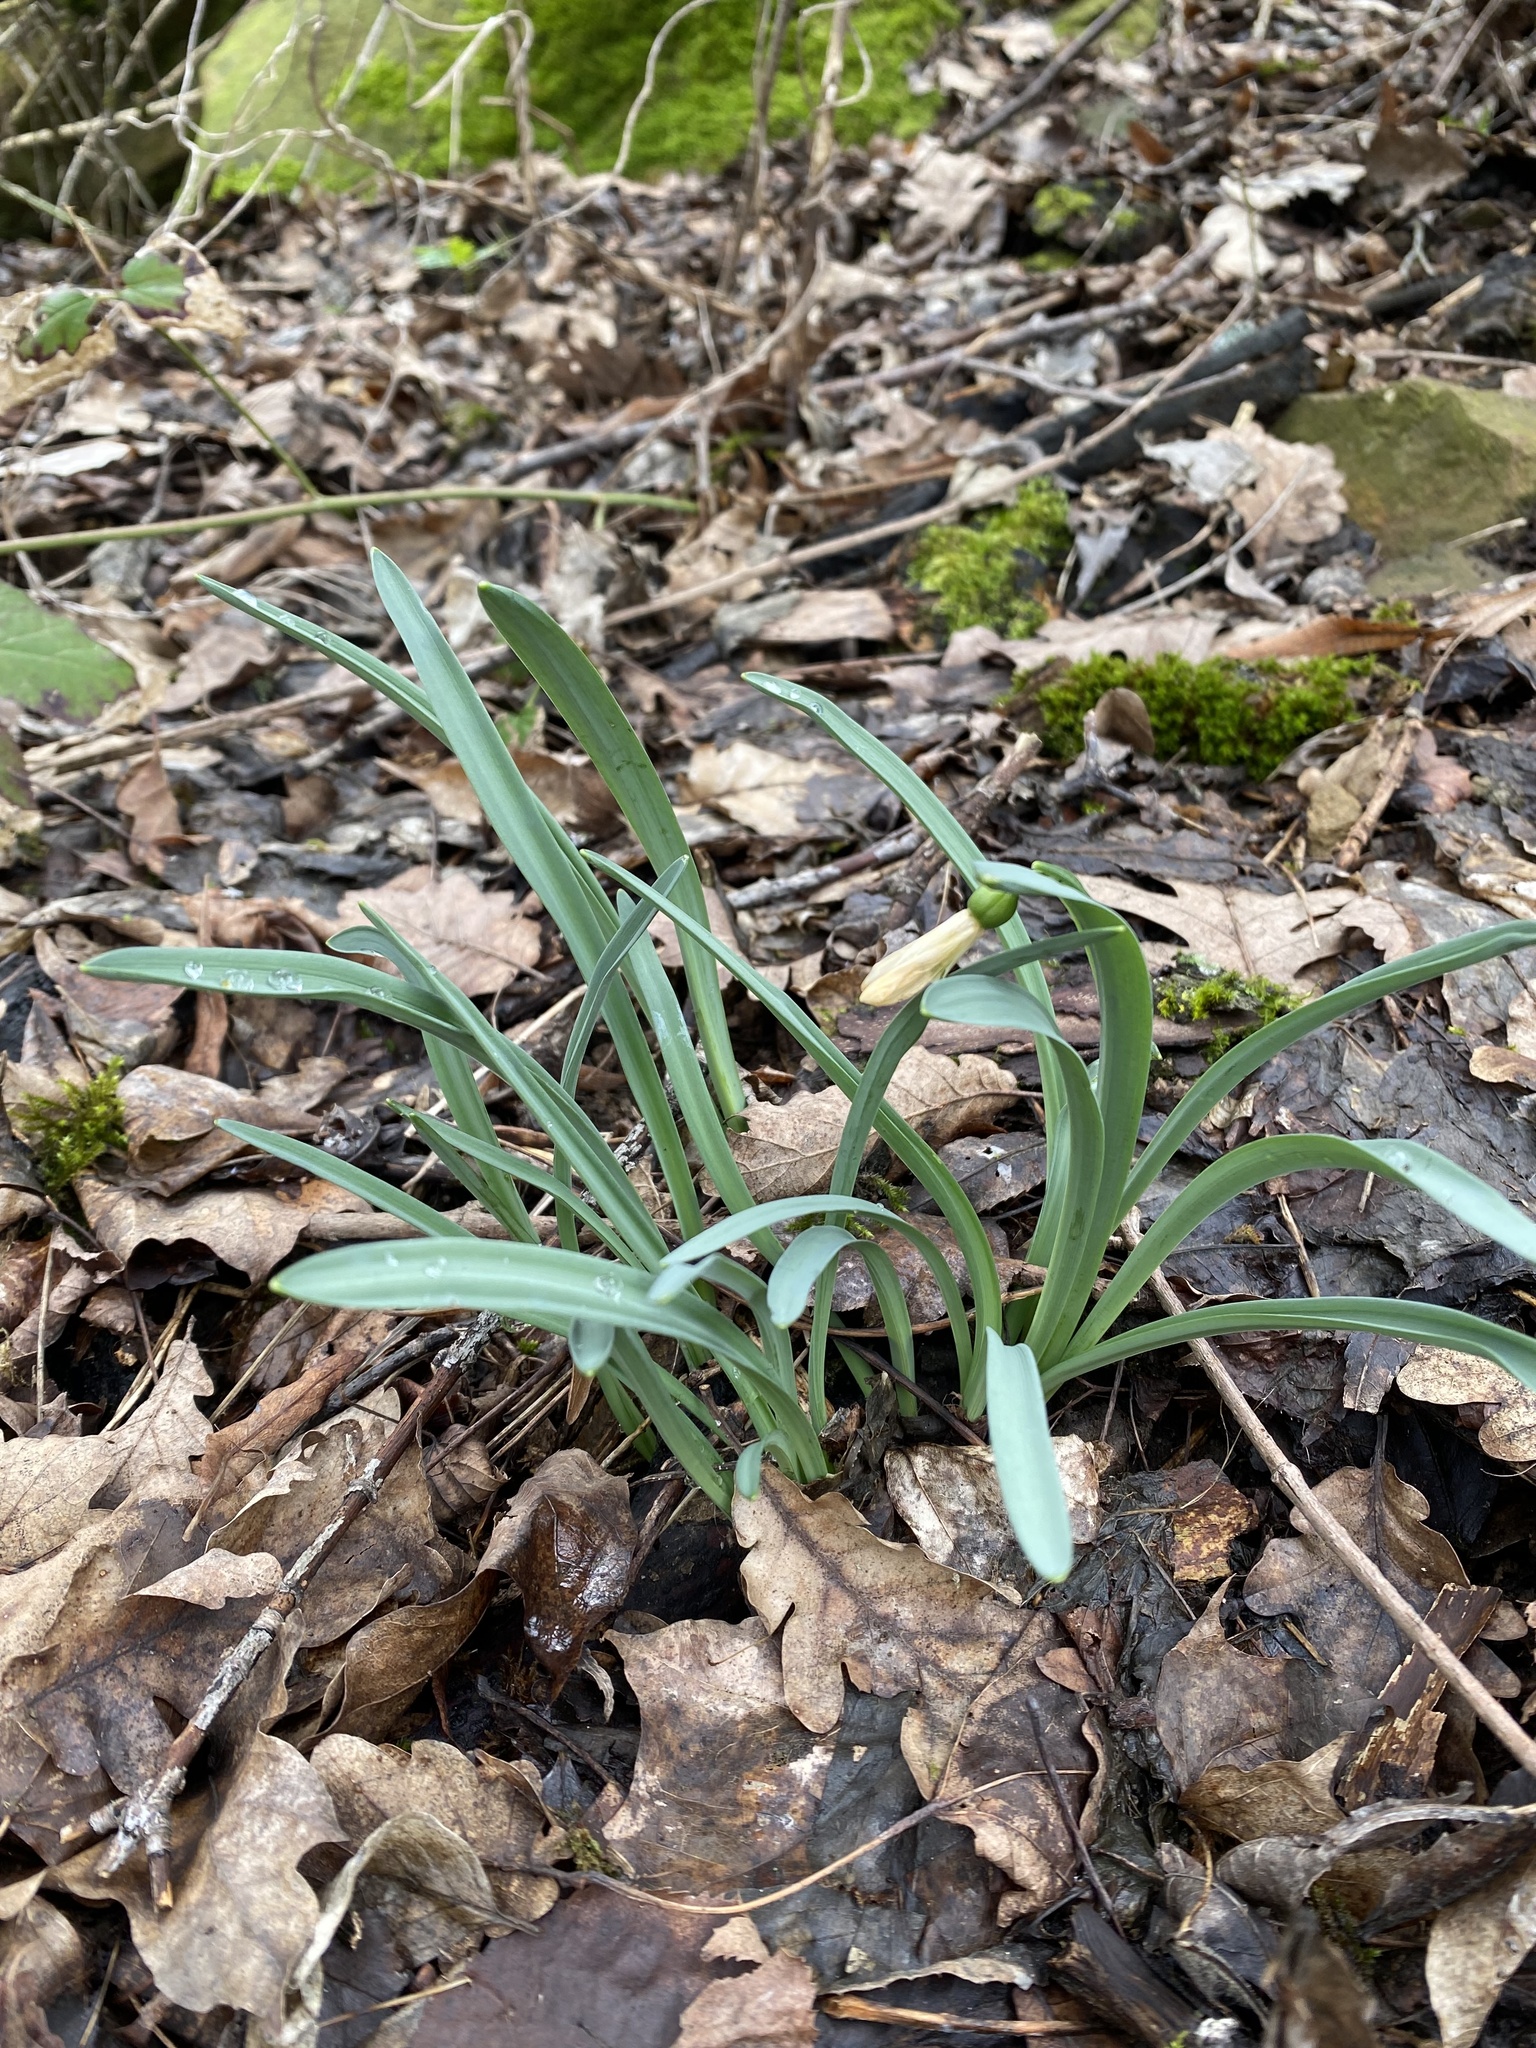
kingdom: Plantae
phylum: Tracheophyta
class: Liliopsida
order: Asparagales
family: Amaryllidaceae
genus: Galanthus
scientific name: Galanthus alpinus
